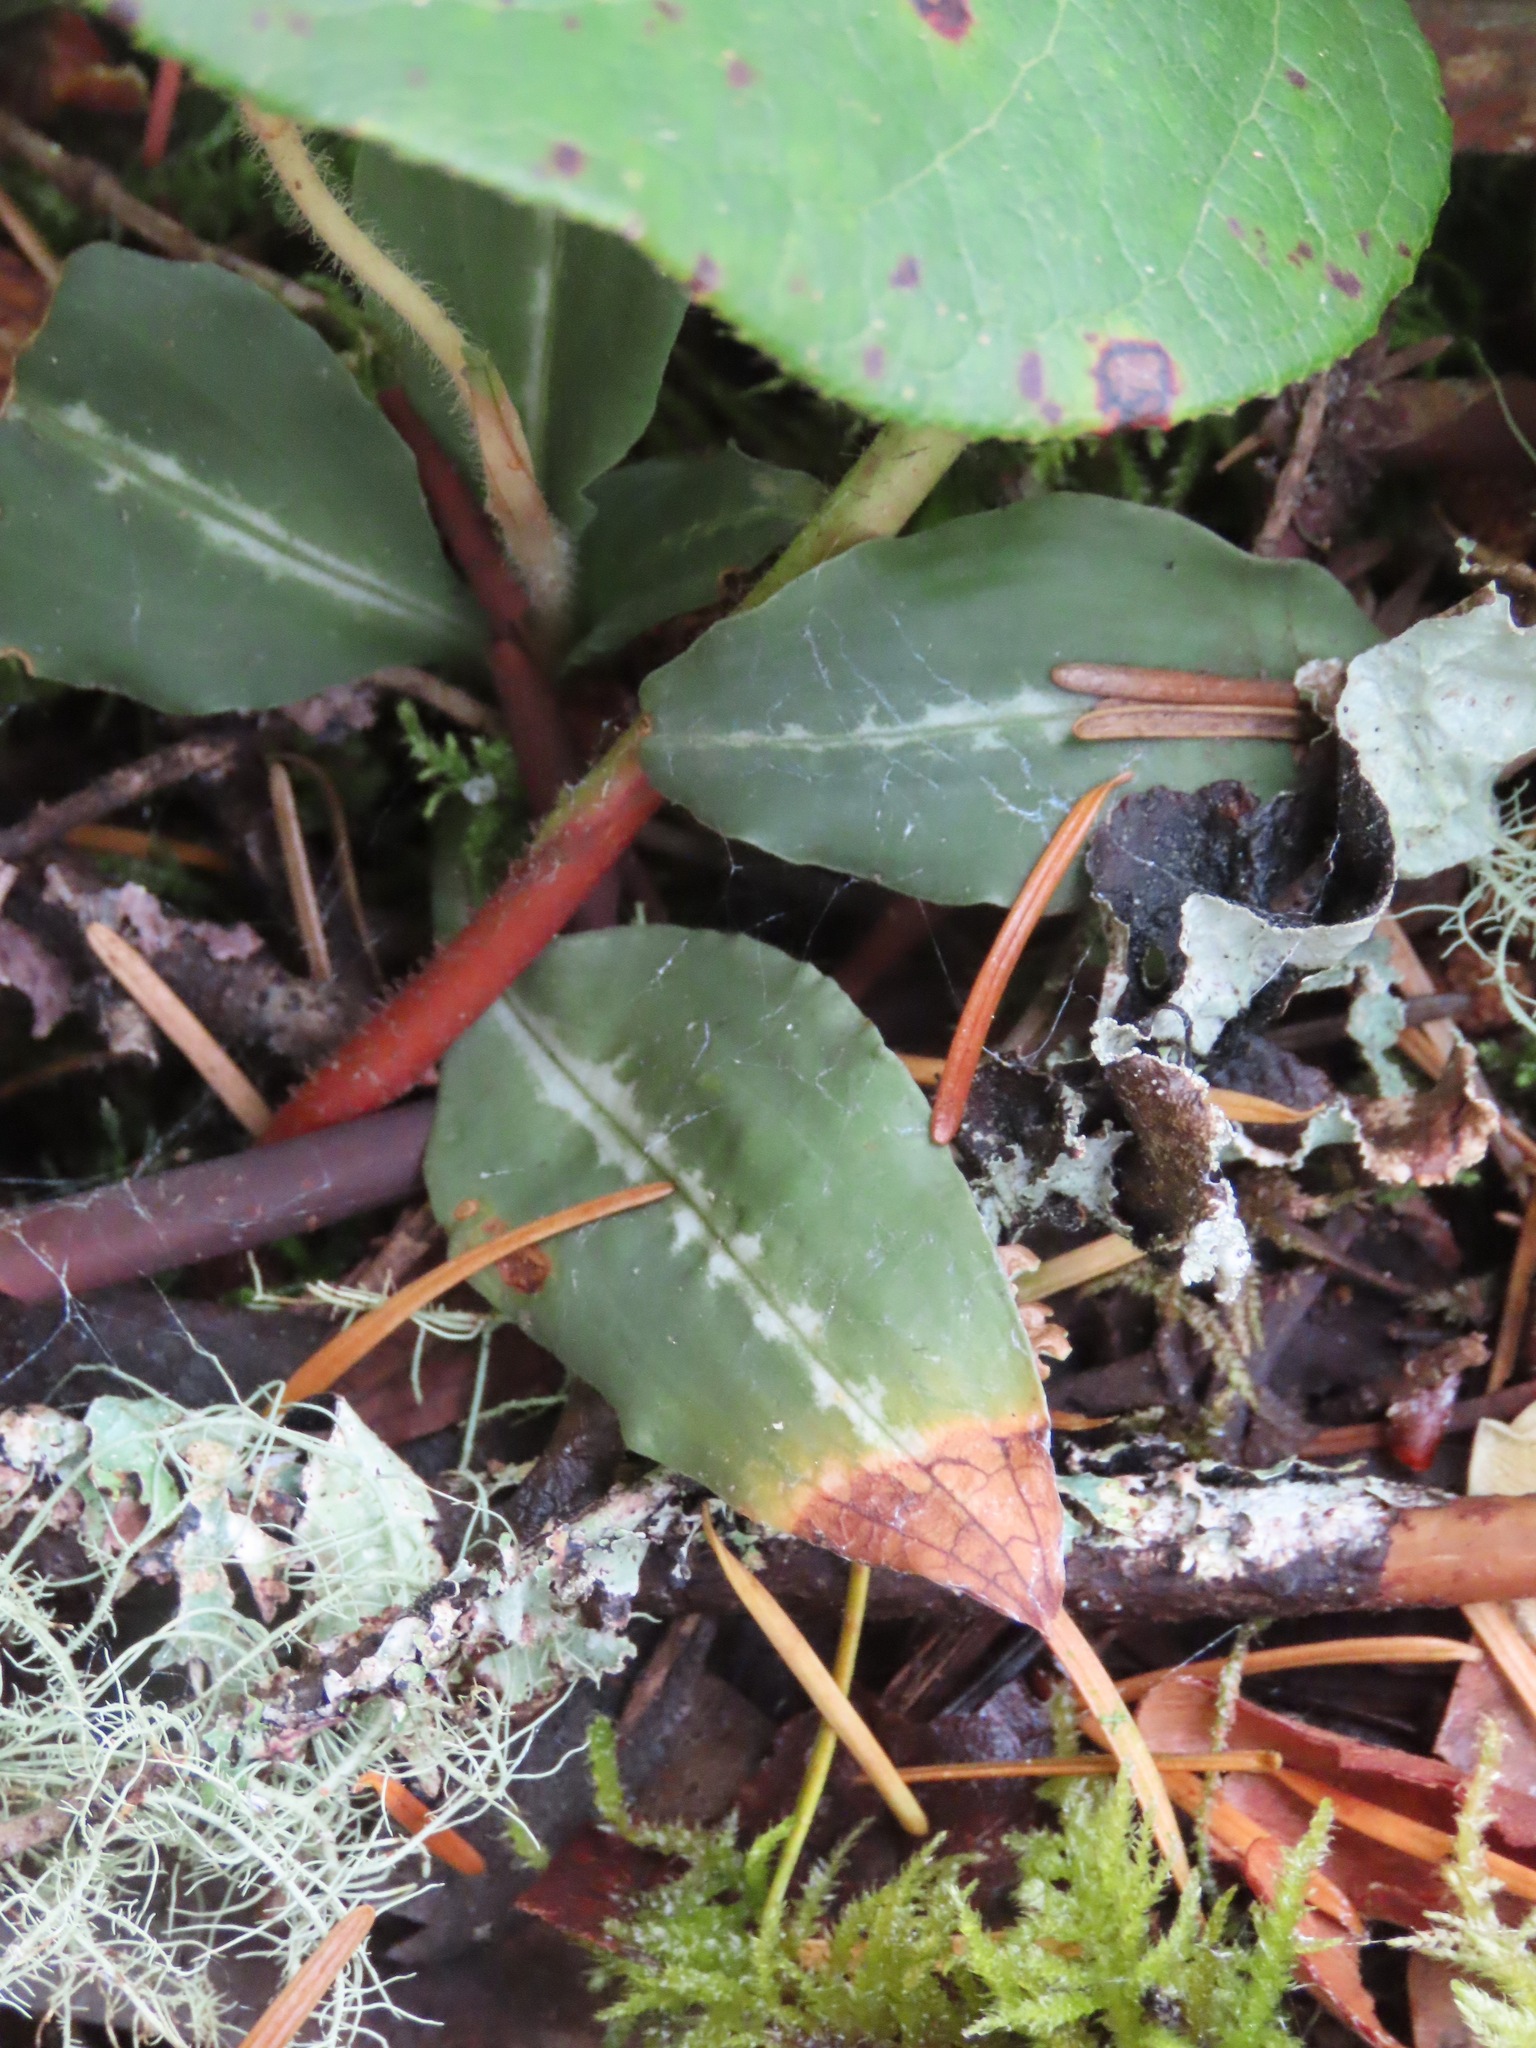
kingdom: Plantae
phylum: Tracheophyta
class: Liliopsida
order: Asparagales
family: Orchidaceae
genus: Goodyera
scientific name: Goodyera oblongifolia
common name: Giant rattlesnake-plantain
